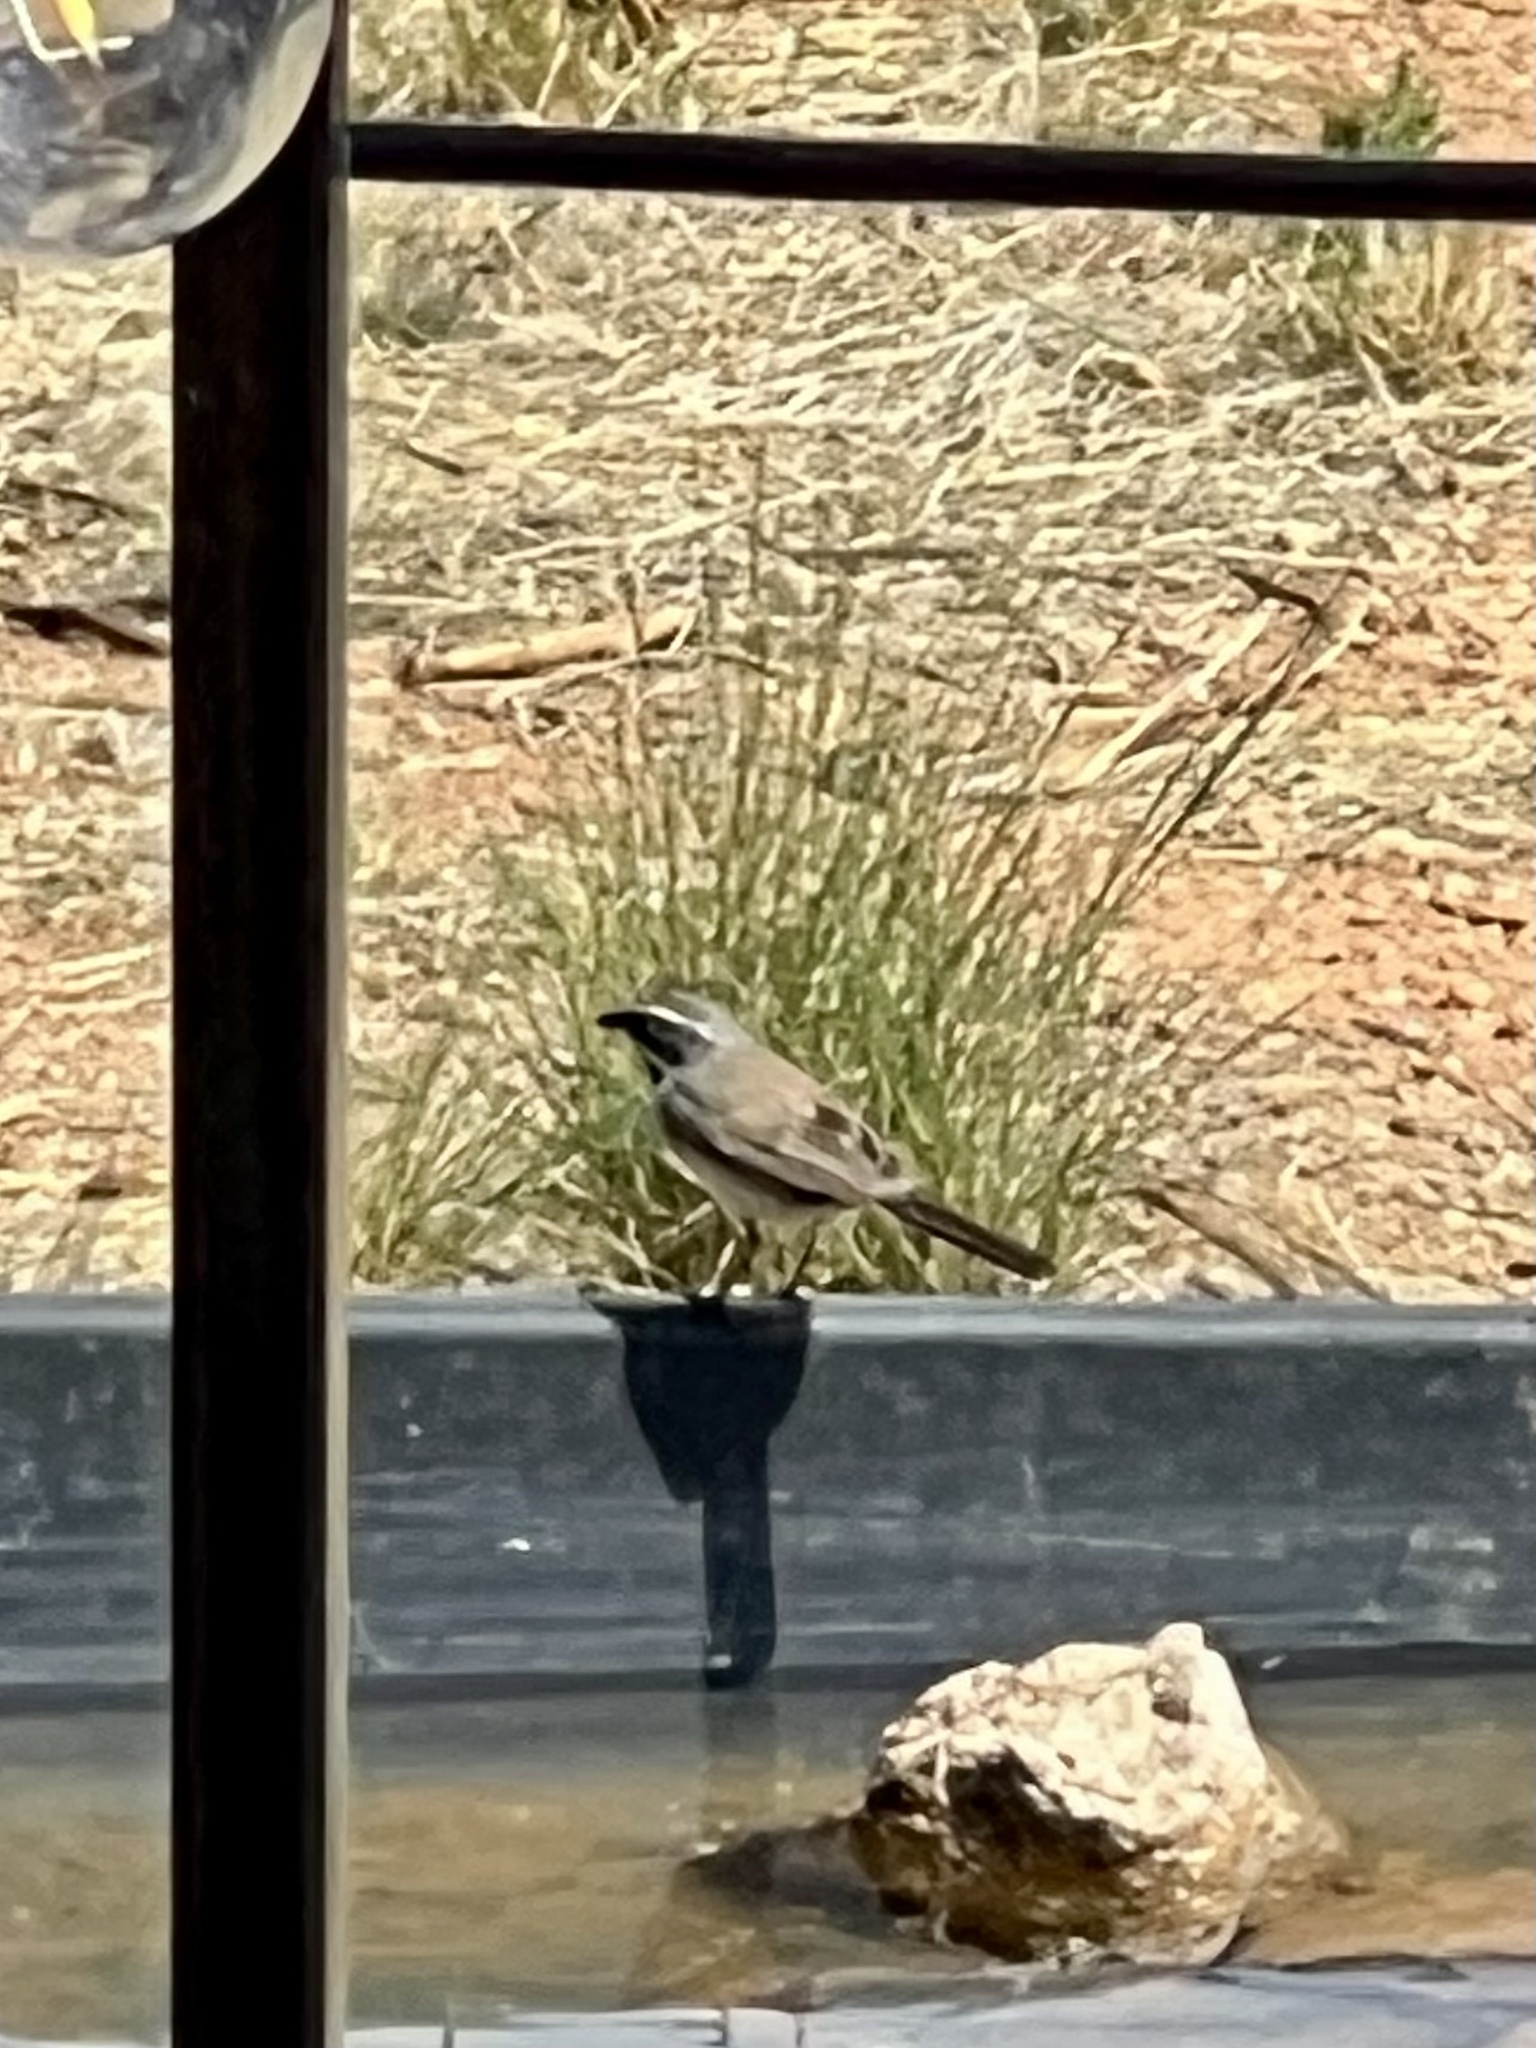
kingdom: Animalia
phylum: Chordata
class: Aves
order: Passeriformes
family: Passerellidae
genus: Amphispiza
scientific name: Amphispiza bilineata
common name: Black-throated sparrow
